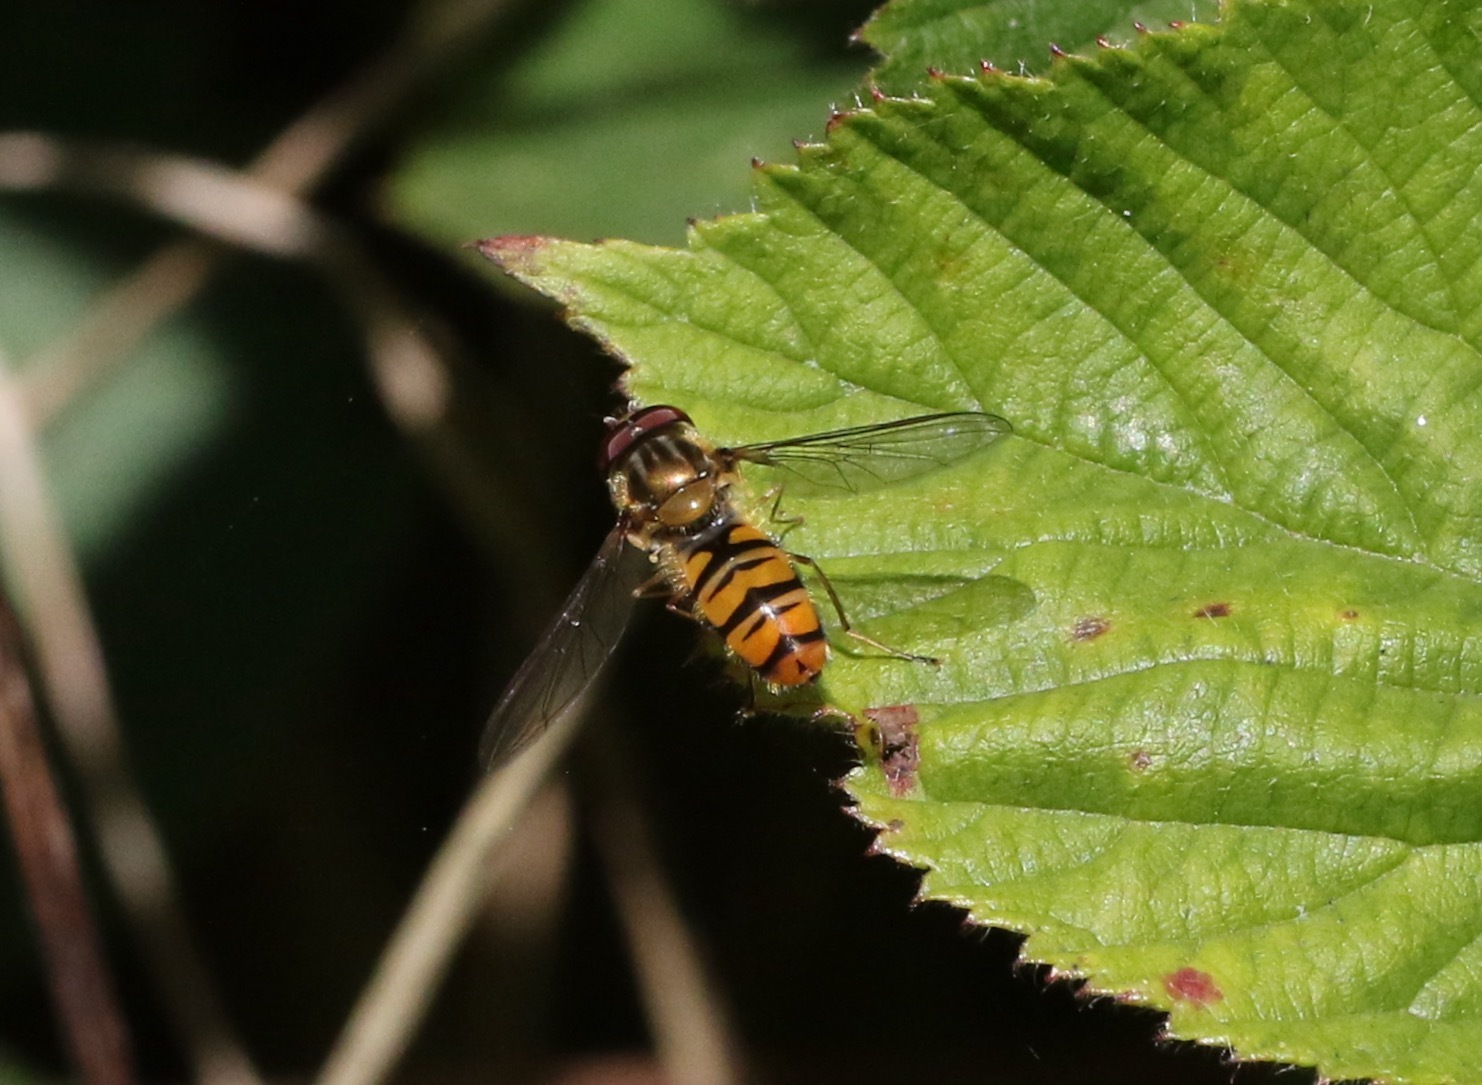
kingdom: Animalia
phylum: Arthropoda
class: Insecta
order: Diptera
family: Syrphidae
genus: Episyrphus
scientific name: Episyrphus balteatus
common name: Marmalade hoverfly
